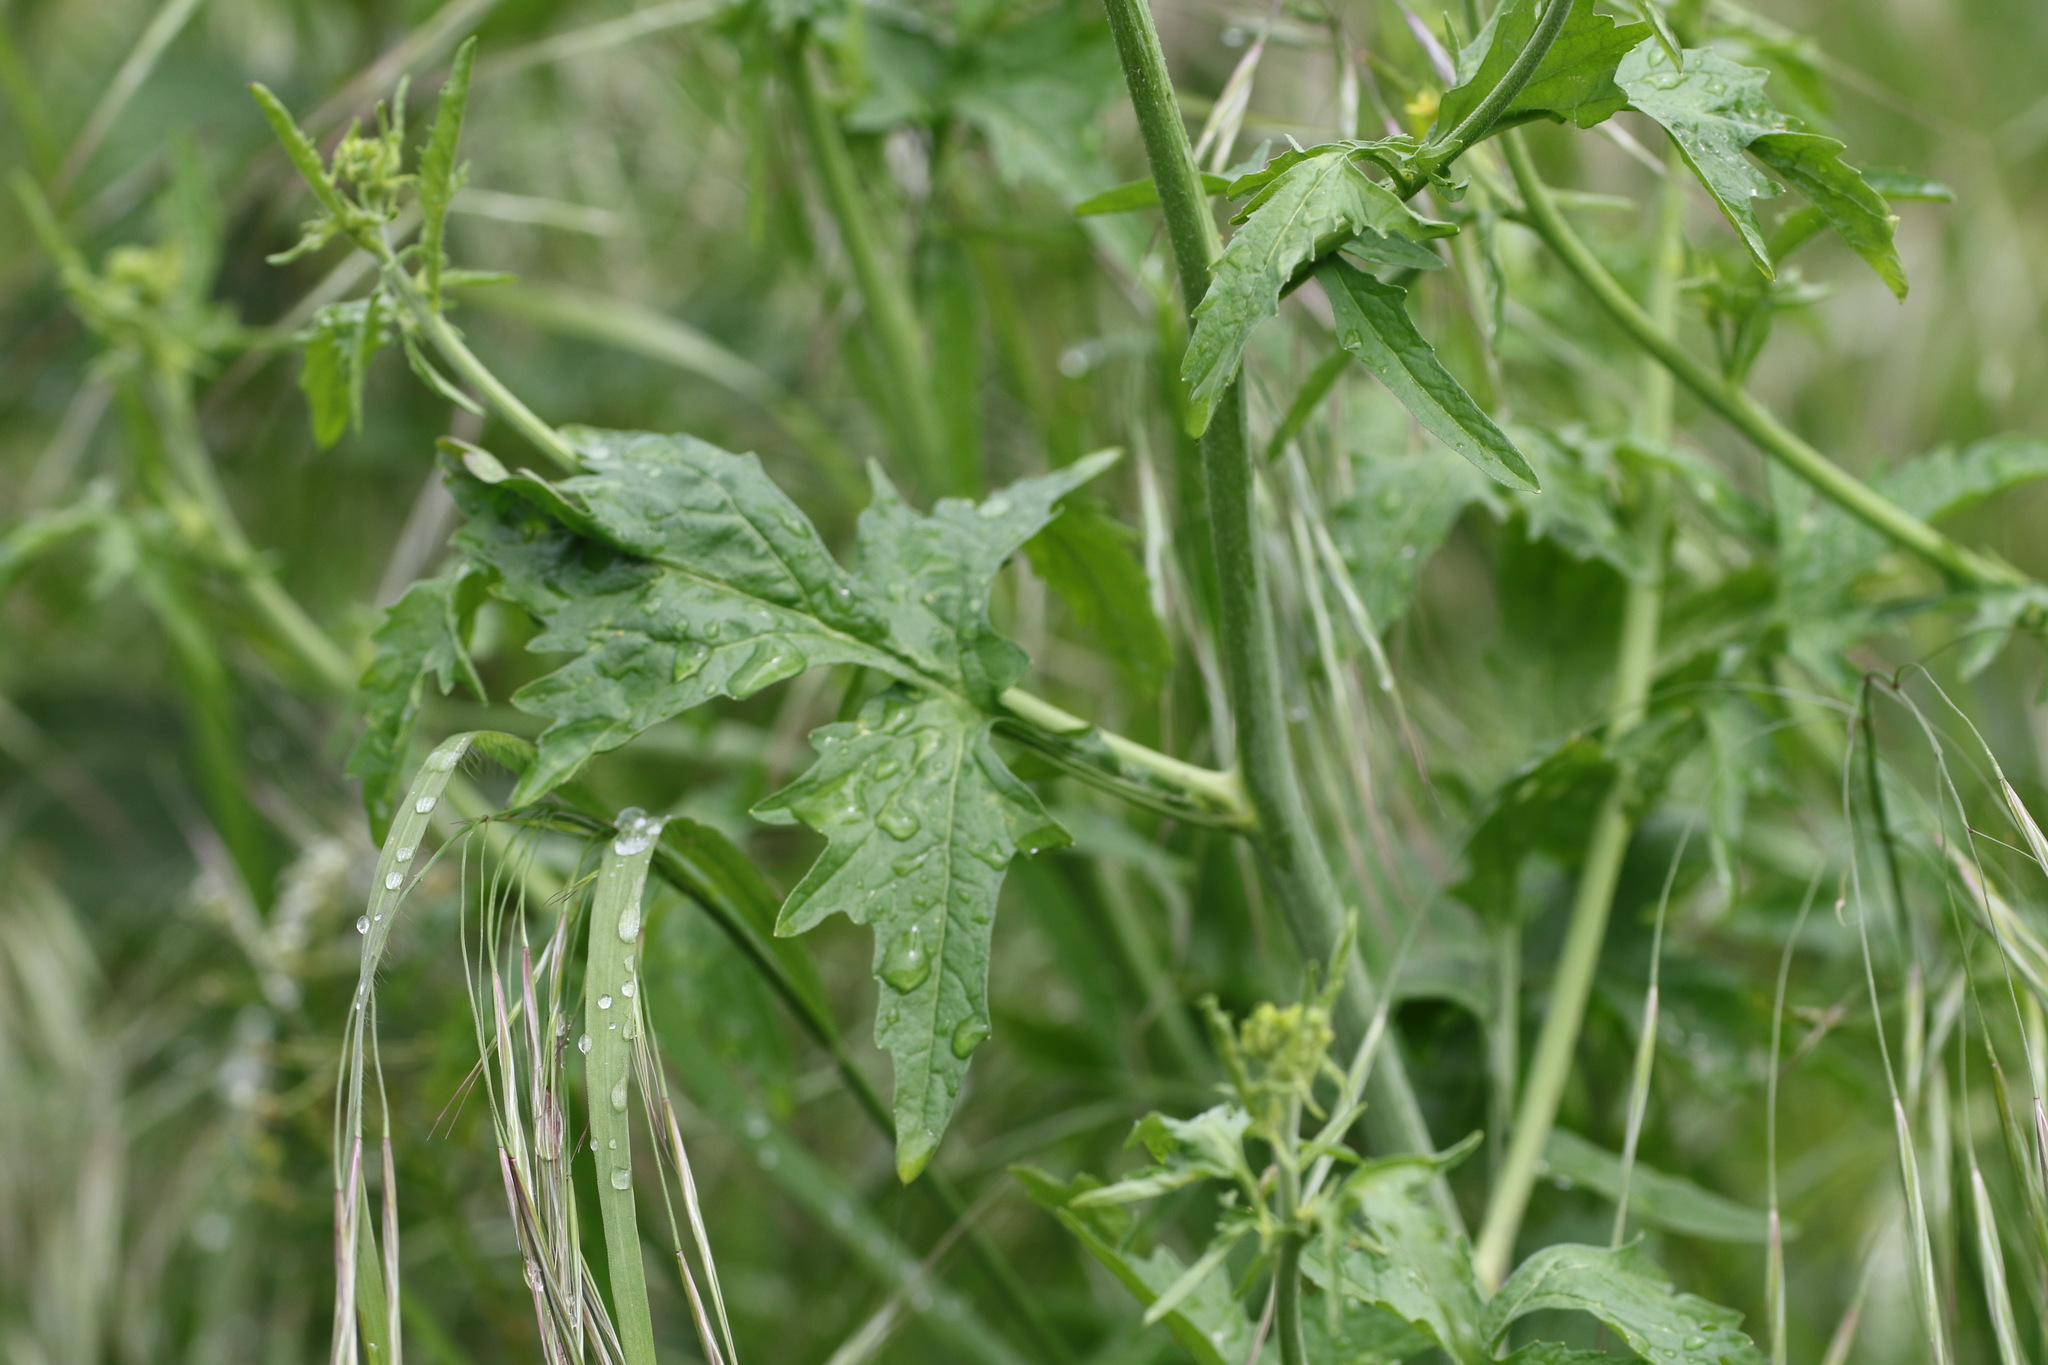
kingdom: Plantae
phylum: Tracheophyta
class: Magnoliopsida
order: Brassicales
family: Brassicaceae
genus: Sisymbrium
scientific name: Sisymbrium officinale
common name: Hedge mustard
